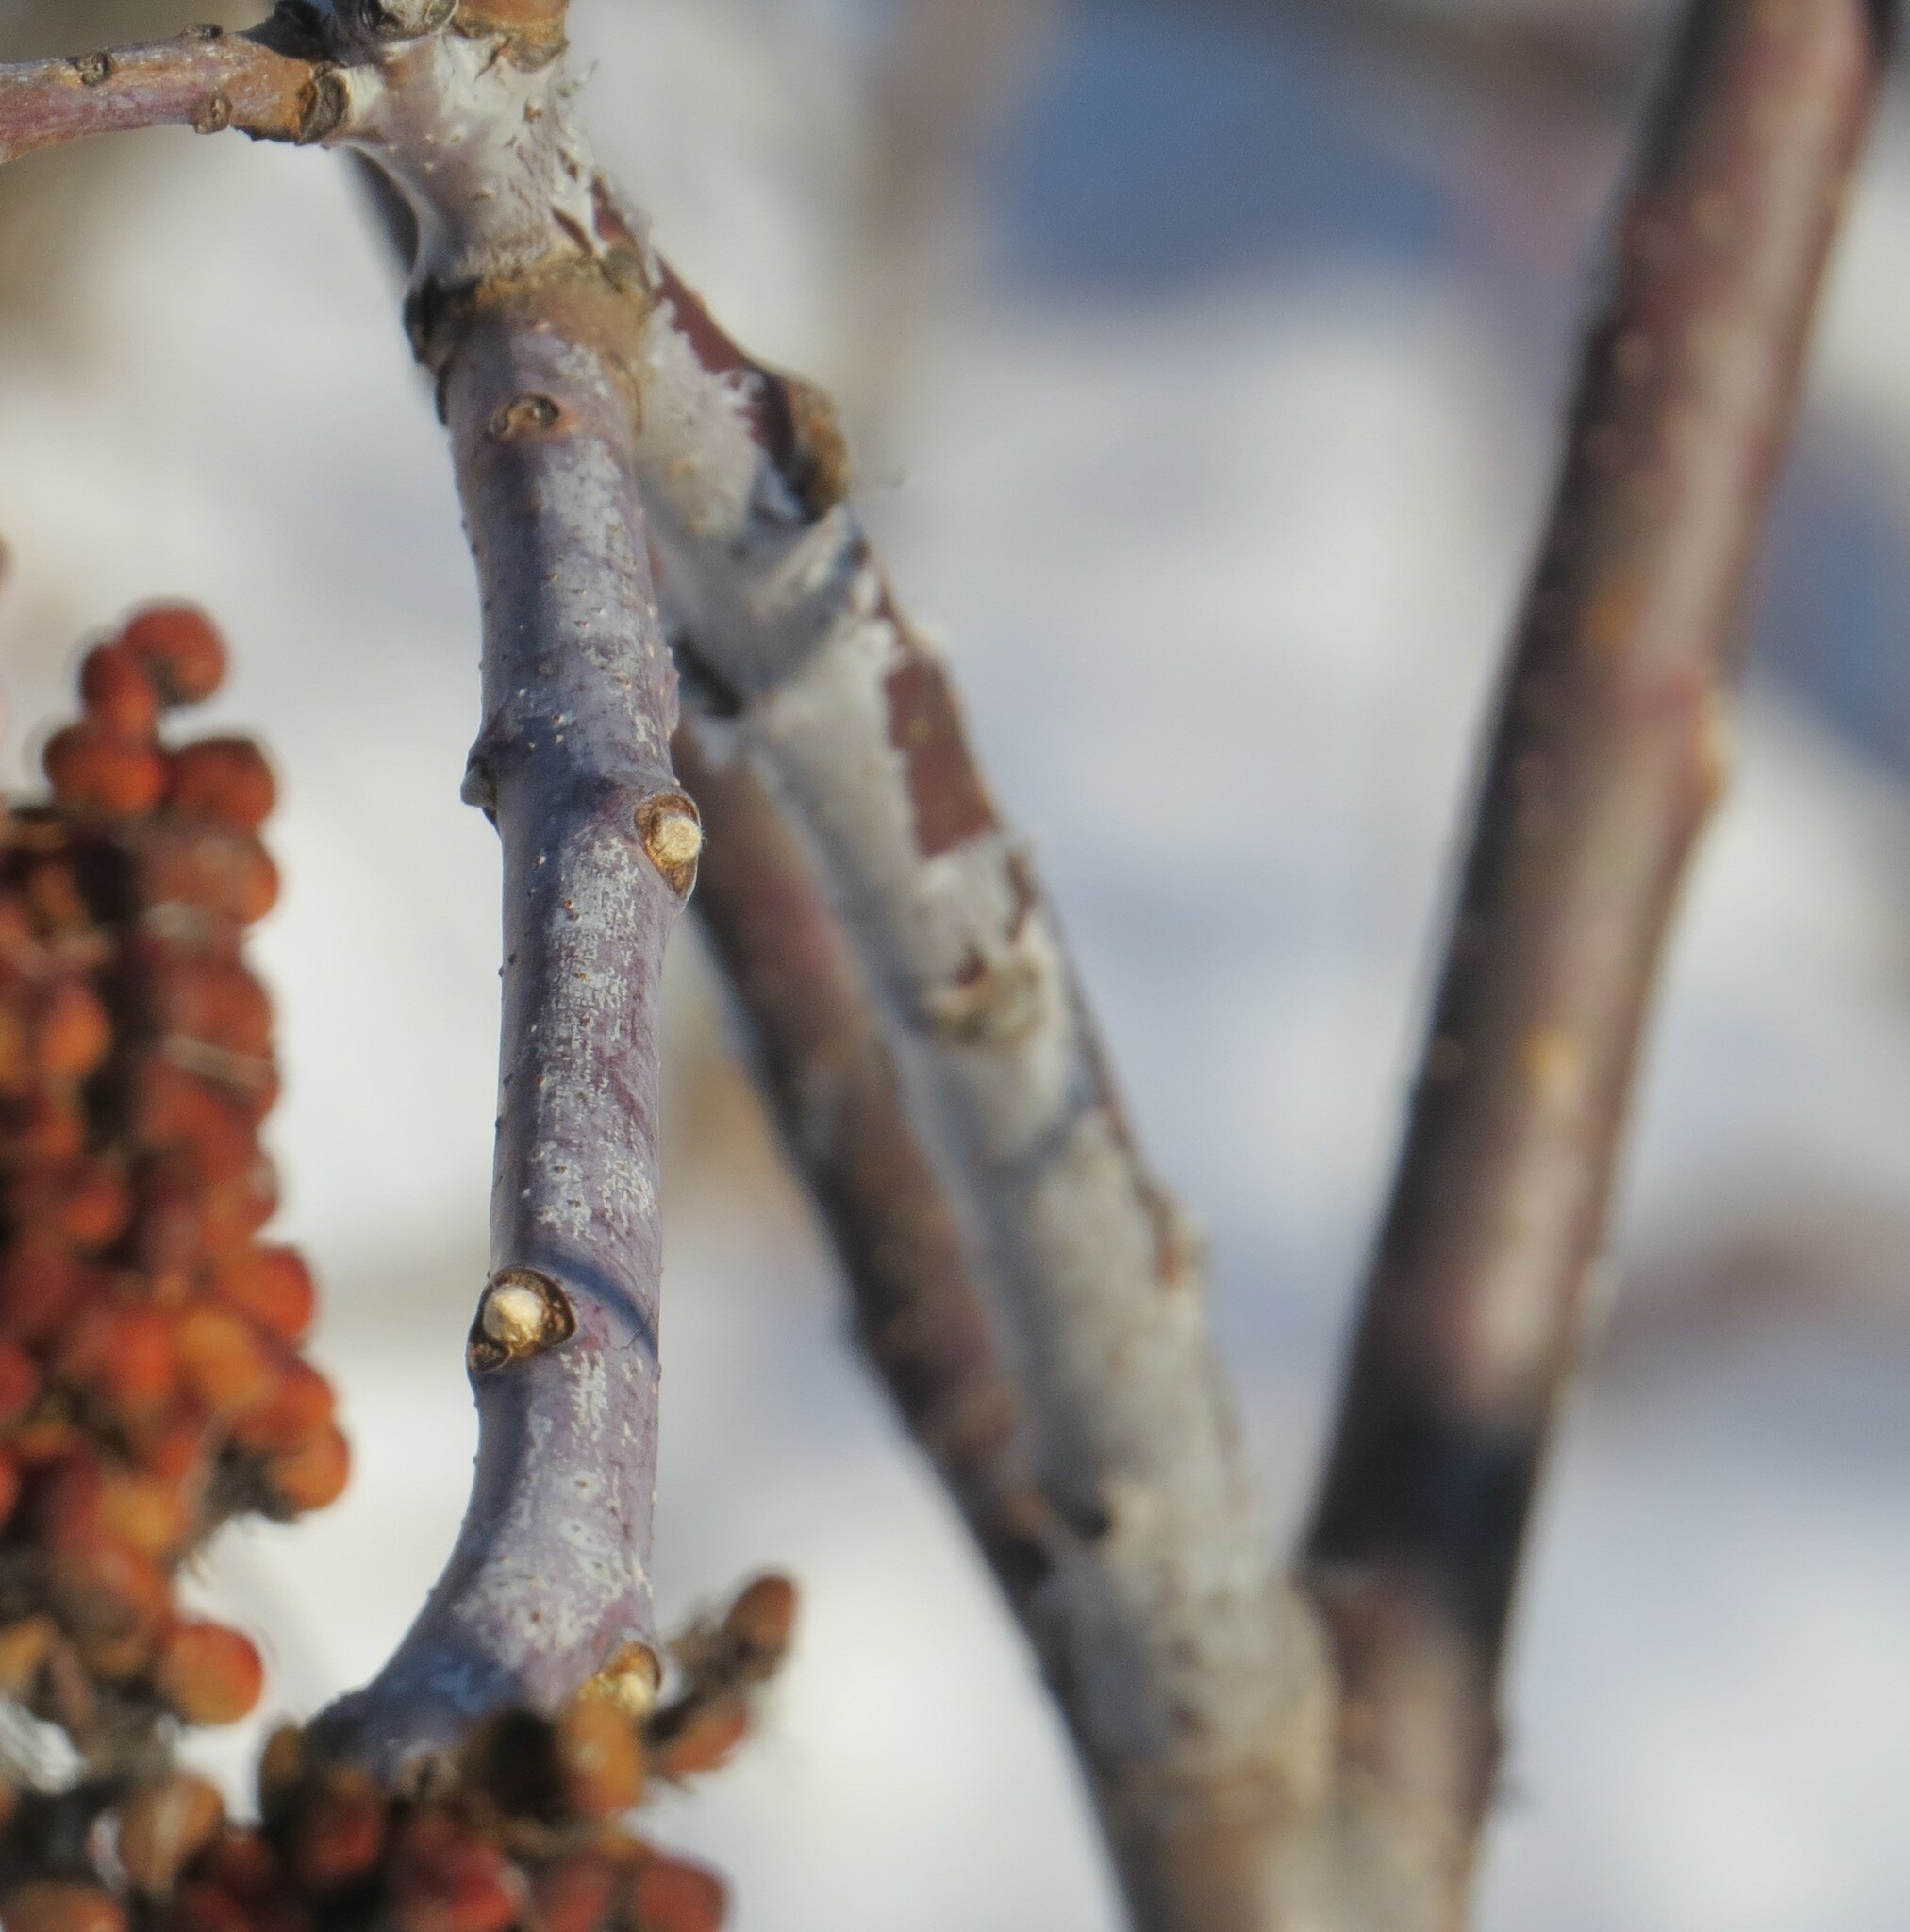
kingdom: Plantae
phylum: Tracheophyta
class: Magnoliopsida
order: Sapindales
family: Anacardiaceae
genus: Rhus
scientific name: Rhus glabra
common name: Scarlet sumac
